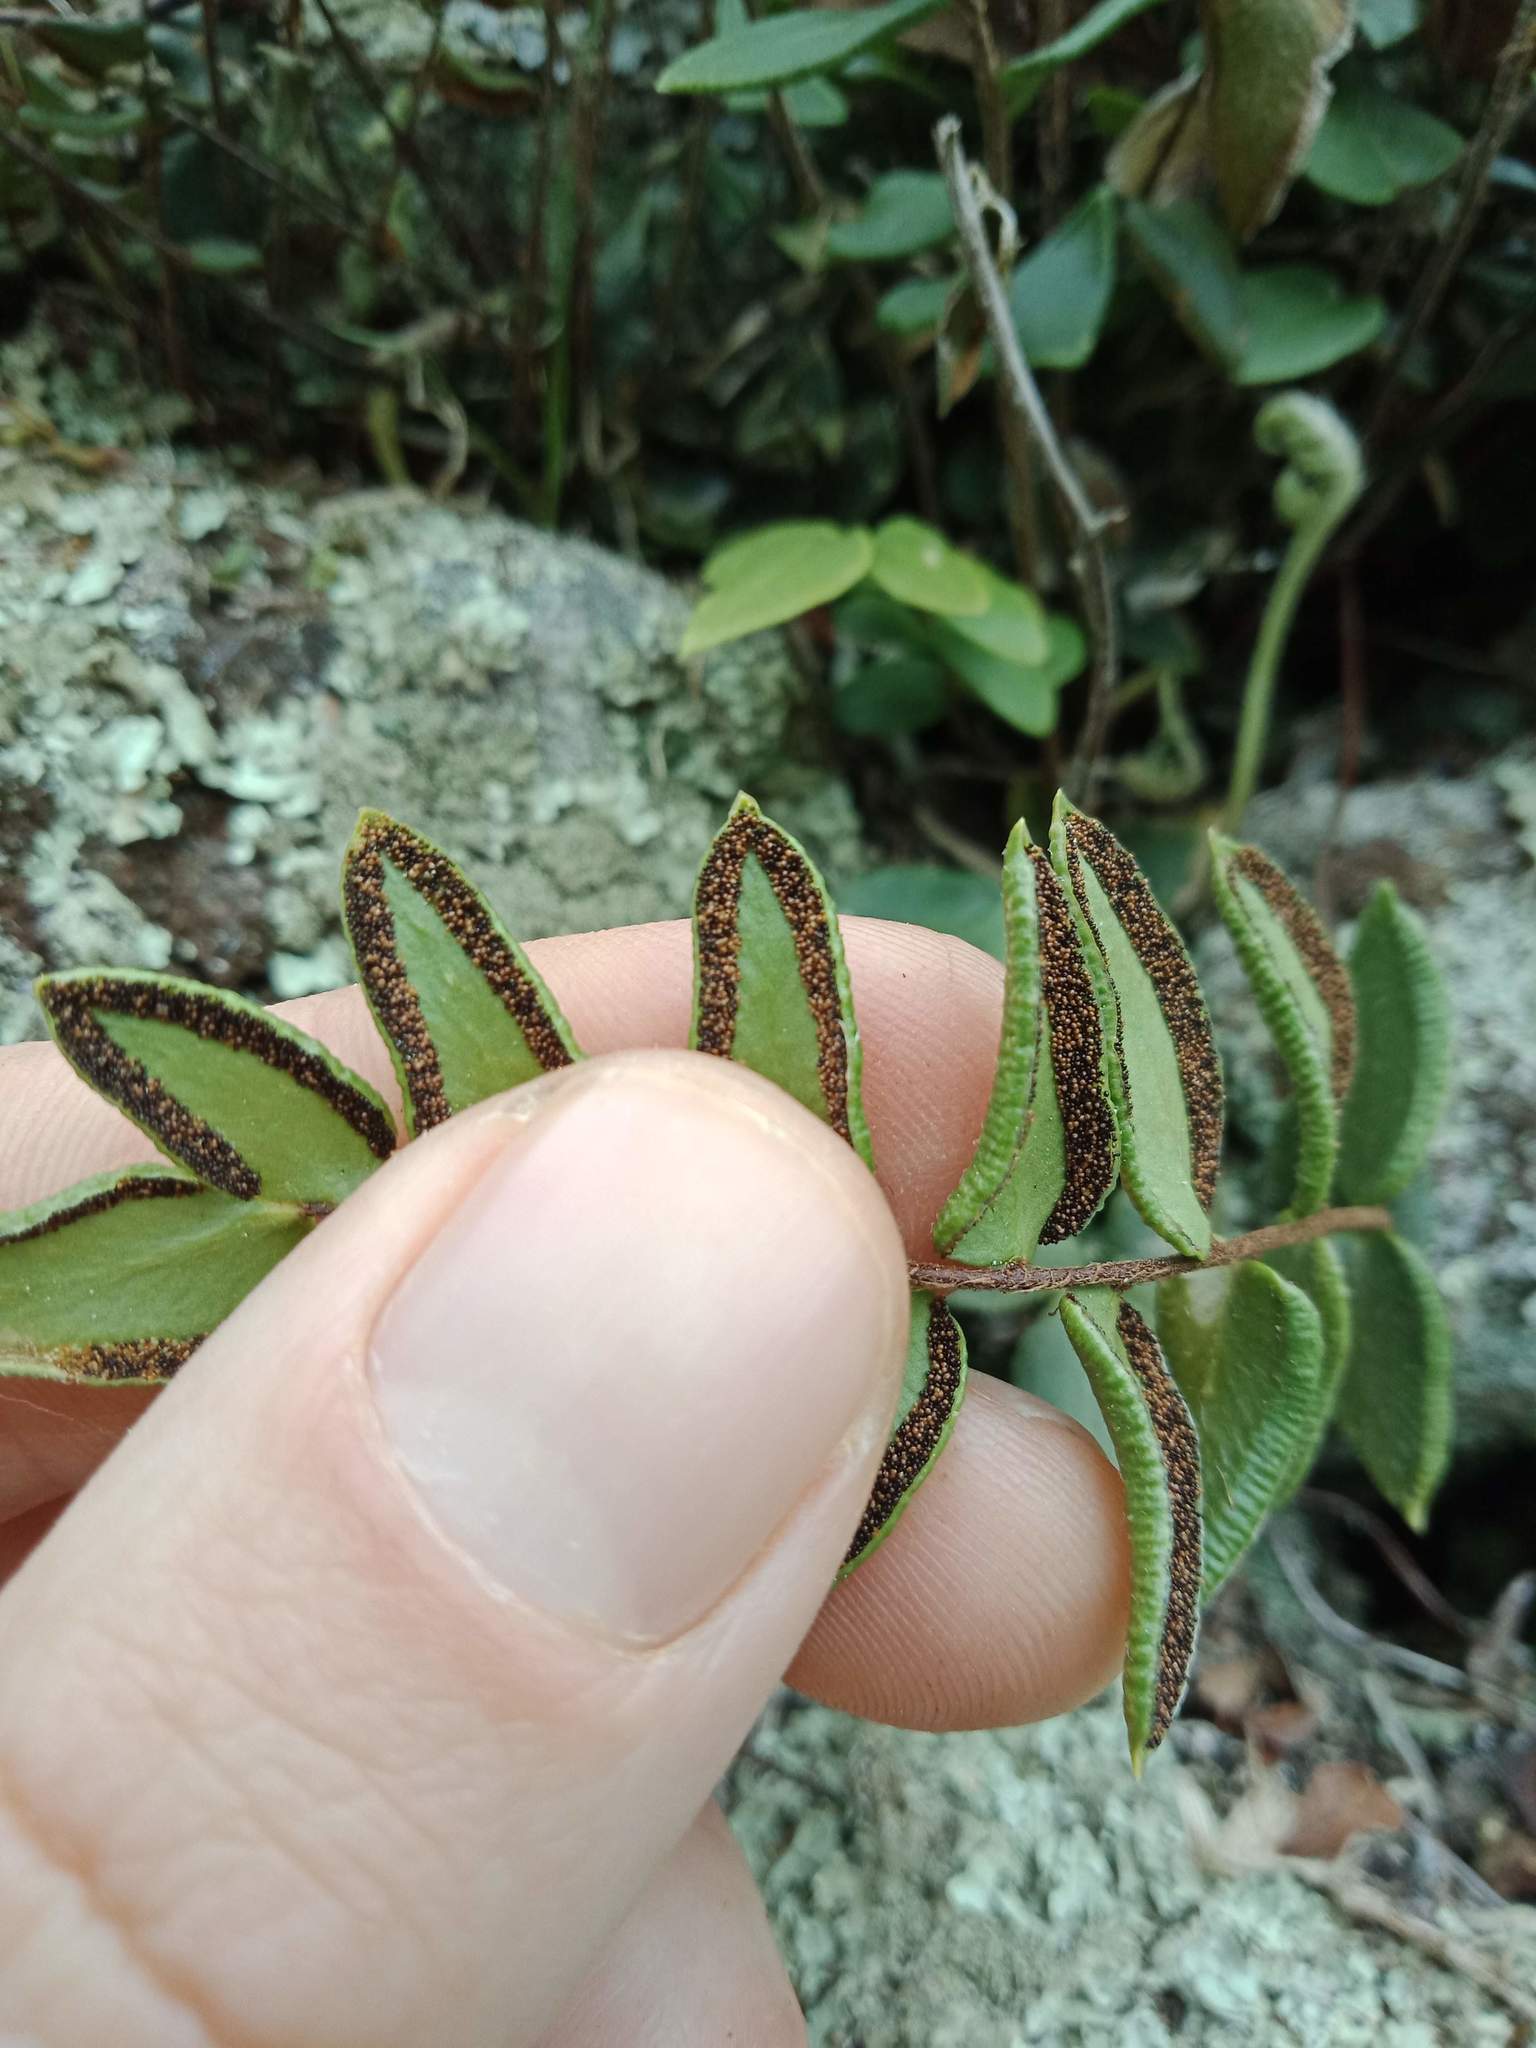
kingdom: Plantae
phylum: Tracheophyta
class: Polypodiopsida
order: Polypodiales
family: Pteridaceae
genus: Pellaea
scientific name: Pellaea calidirupium
